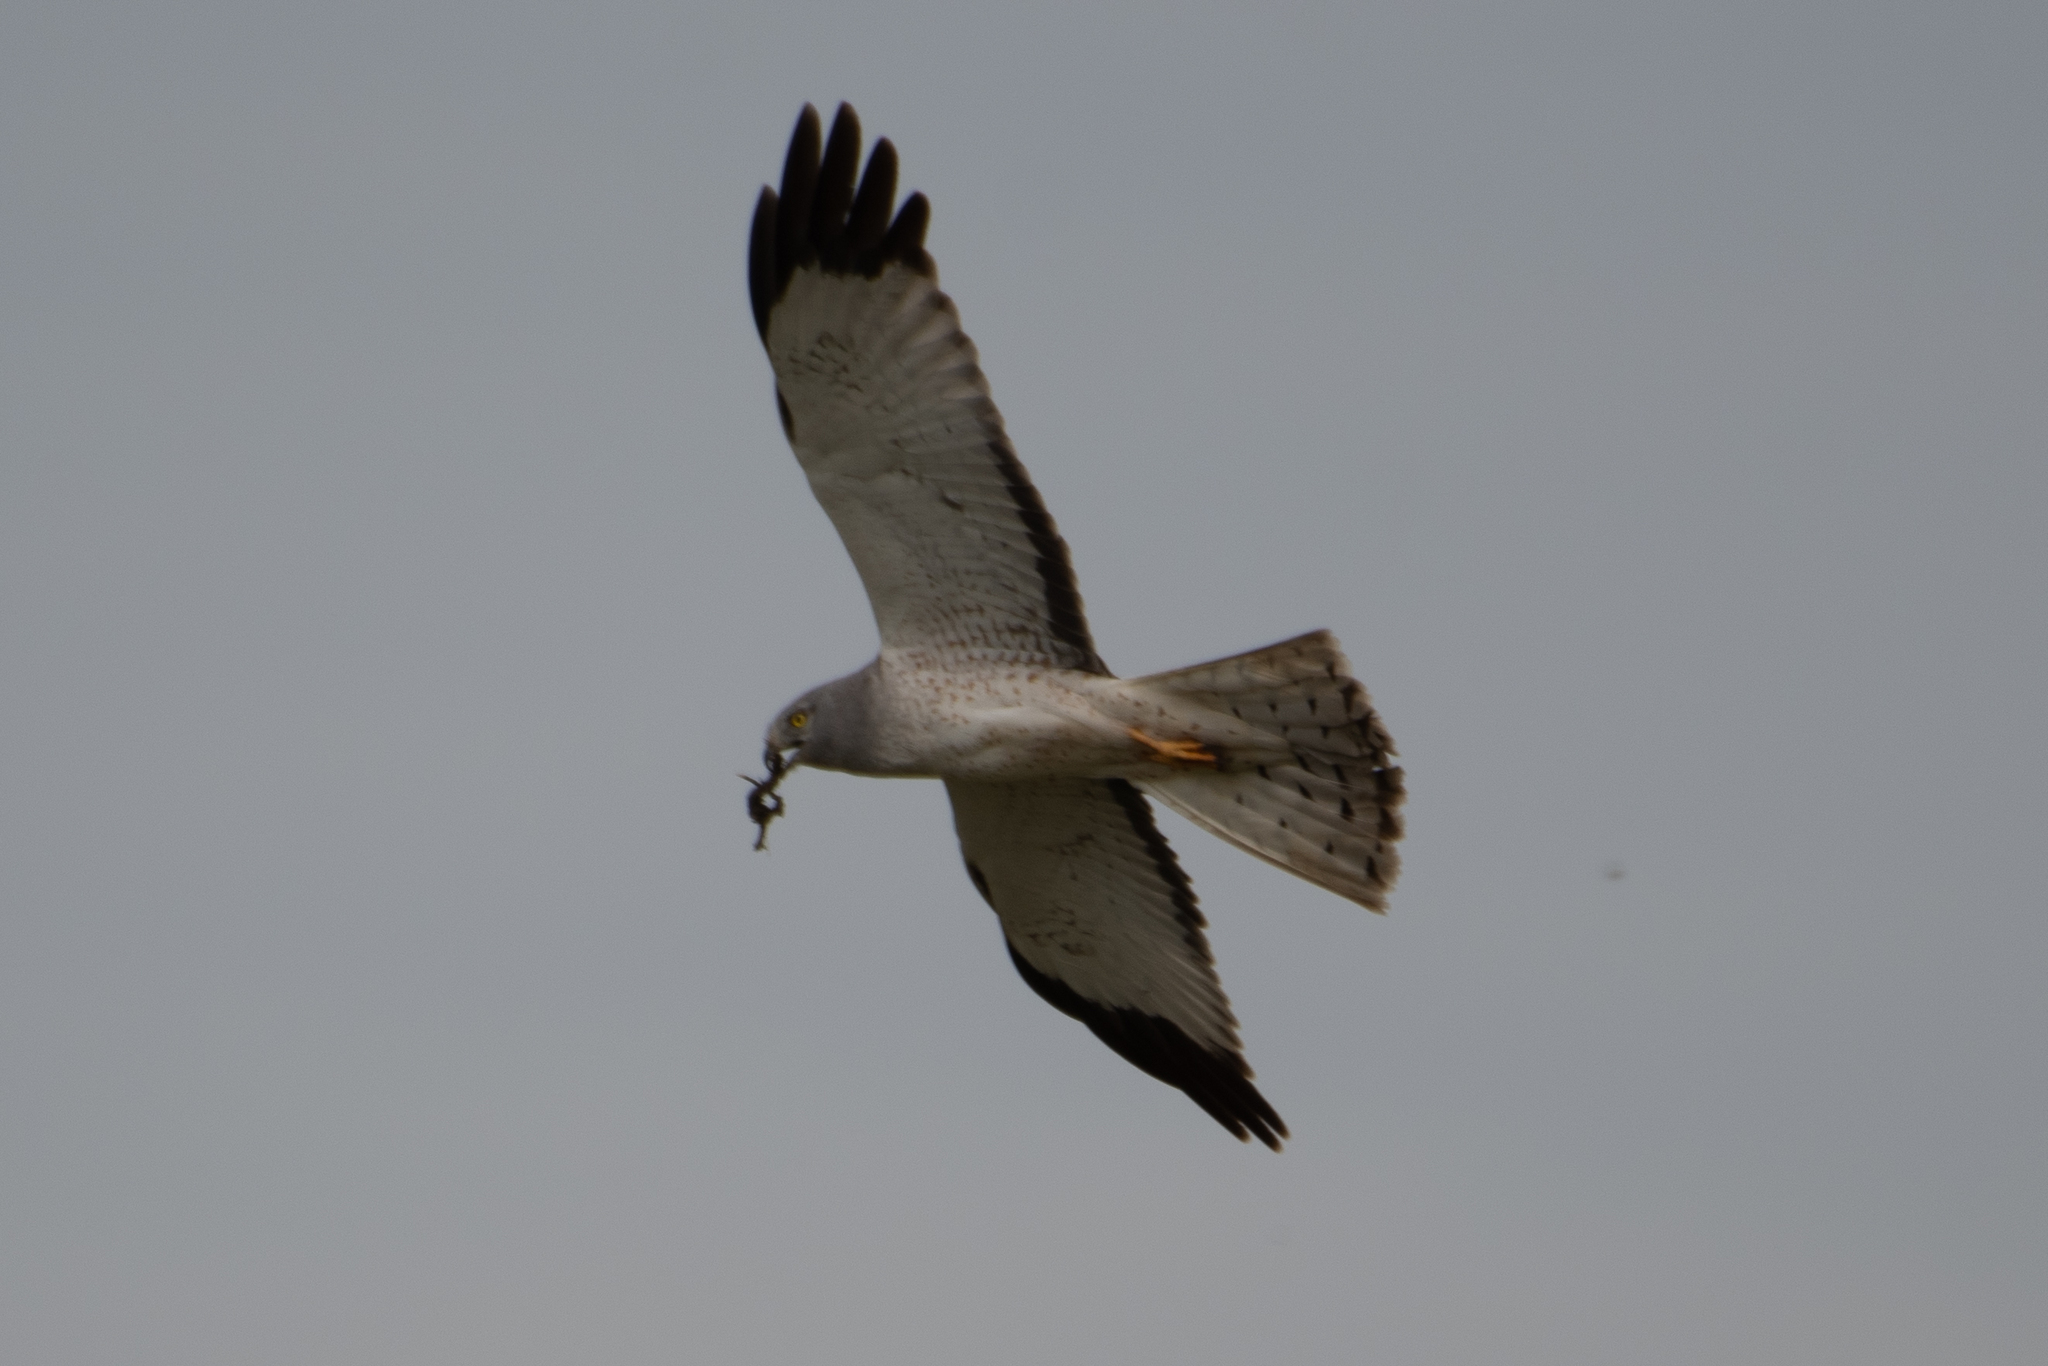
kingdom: Animalia
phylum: Chordata
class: Aves
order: Accipitriformes
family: Accipitridae
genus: Circus
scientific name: Circus cyaneus
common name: Hen harrier
